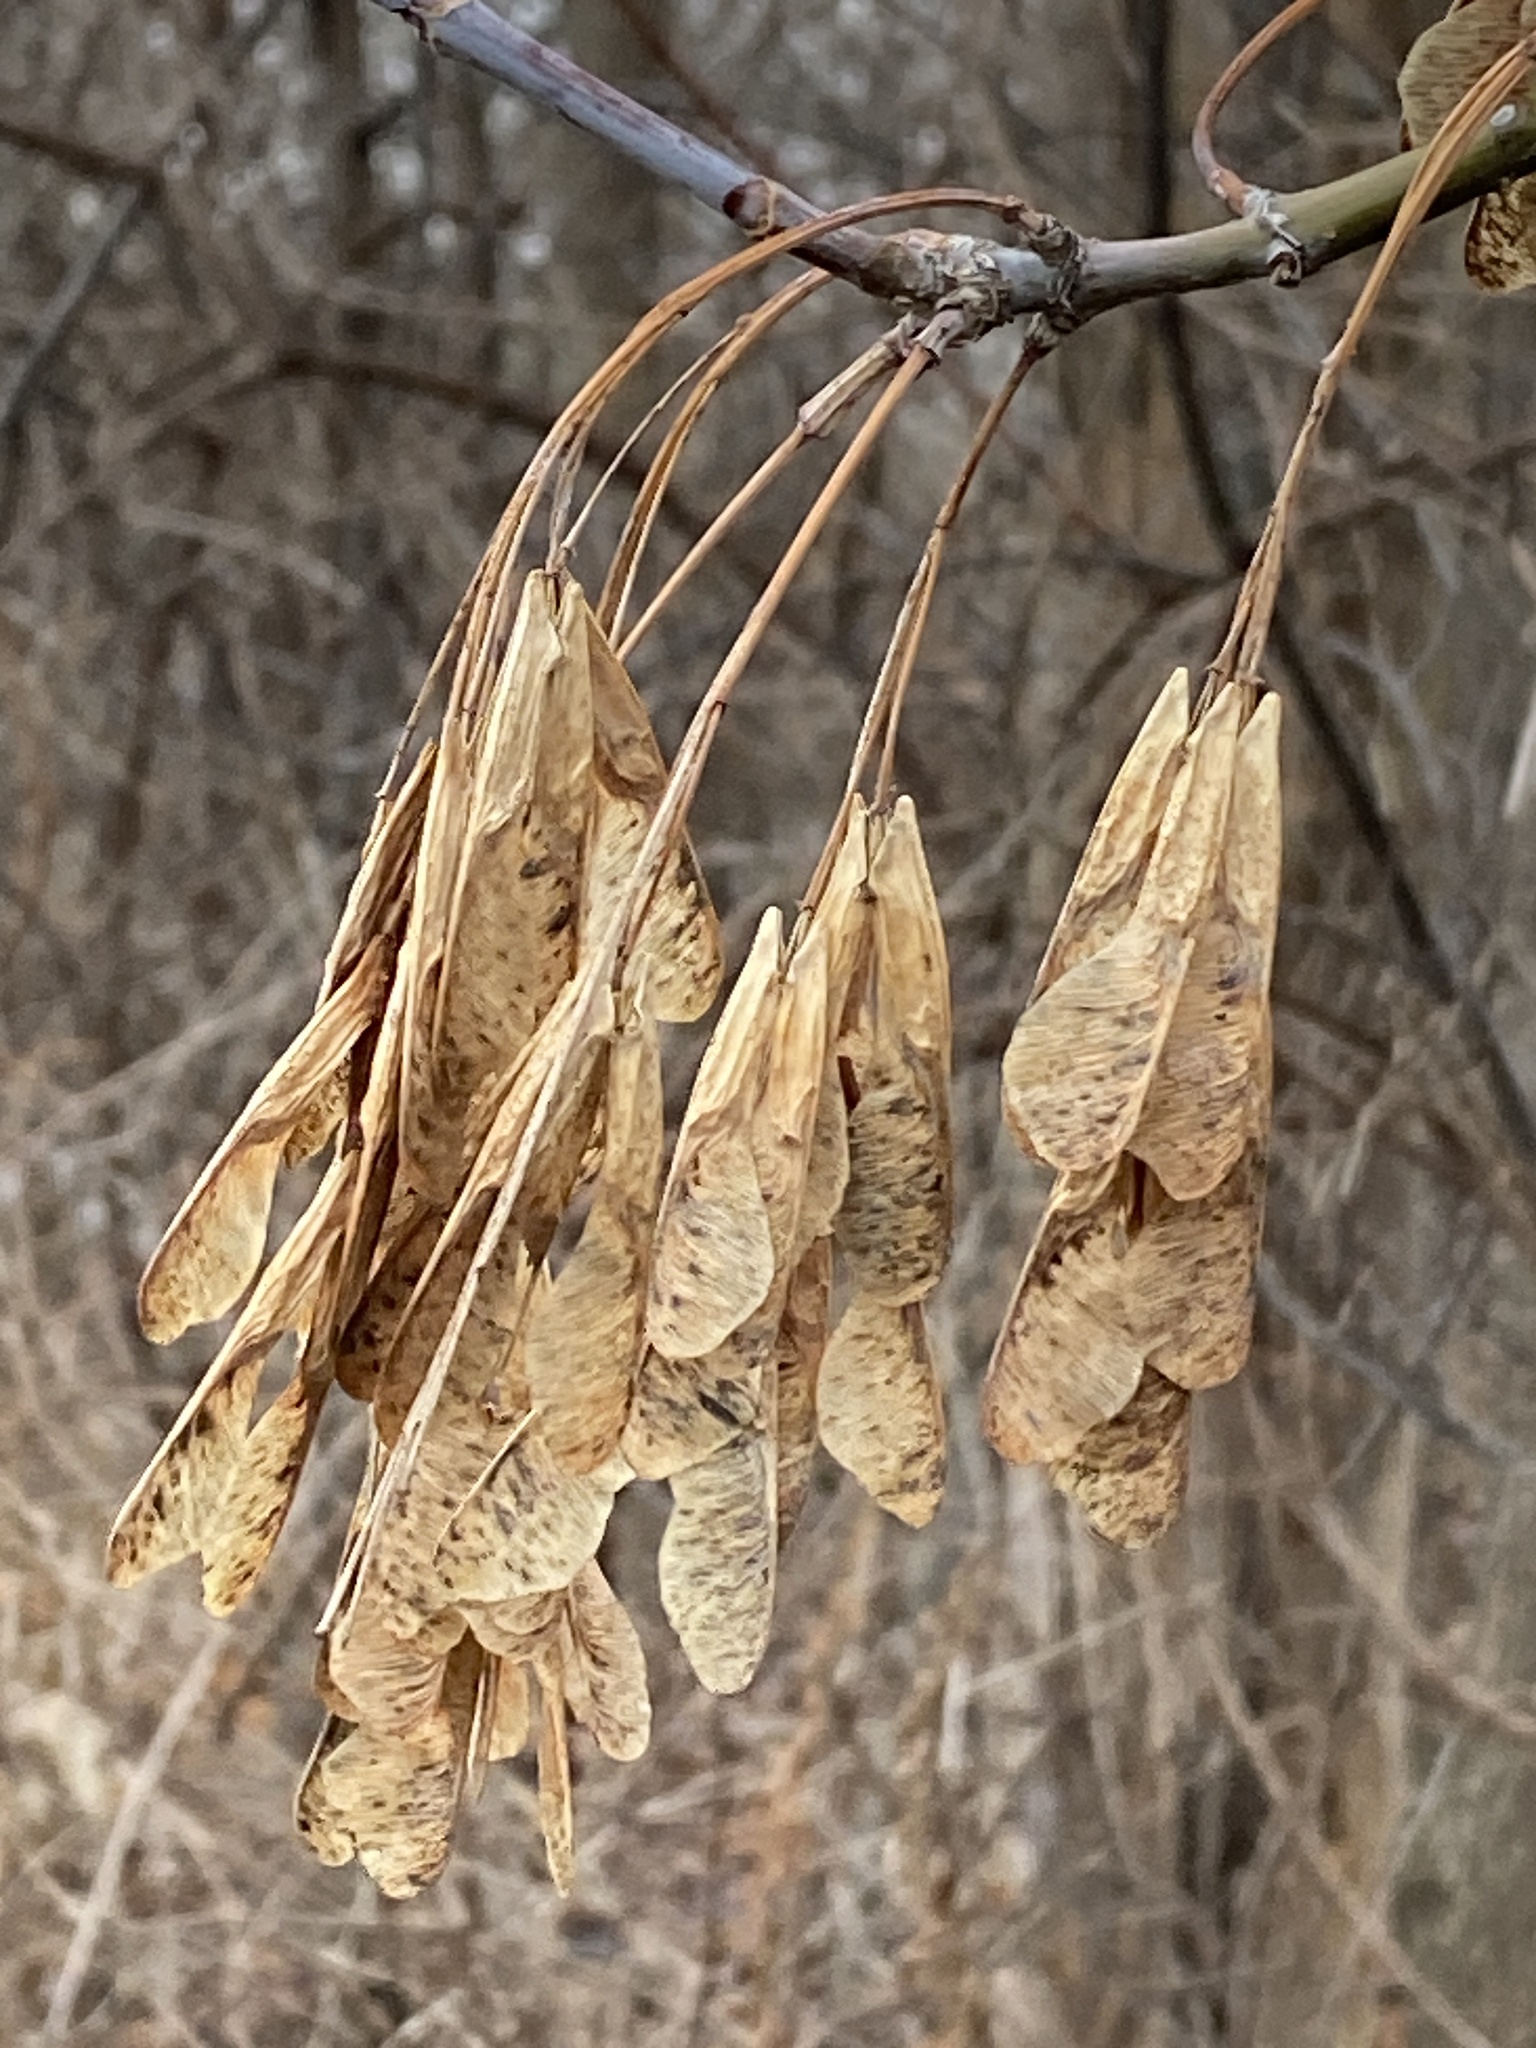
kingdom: Plantae
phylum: Tracheophyta
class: Magnoliopsida
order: Sapindales
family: Sapindaceae
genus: Acer
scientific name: Acer negundo
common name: Ashleaf maple
